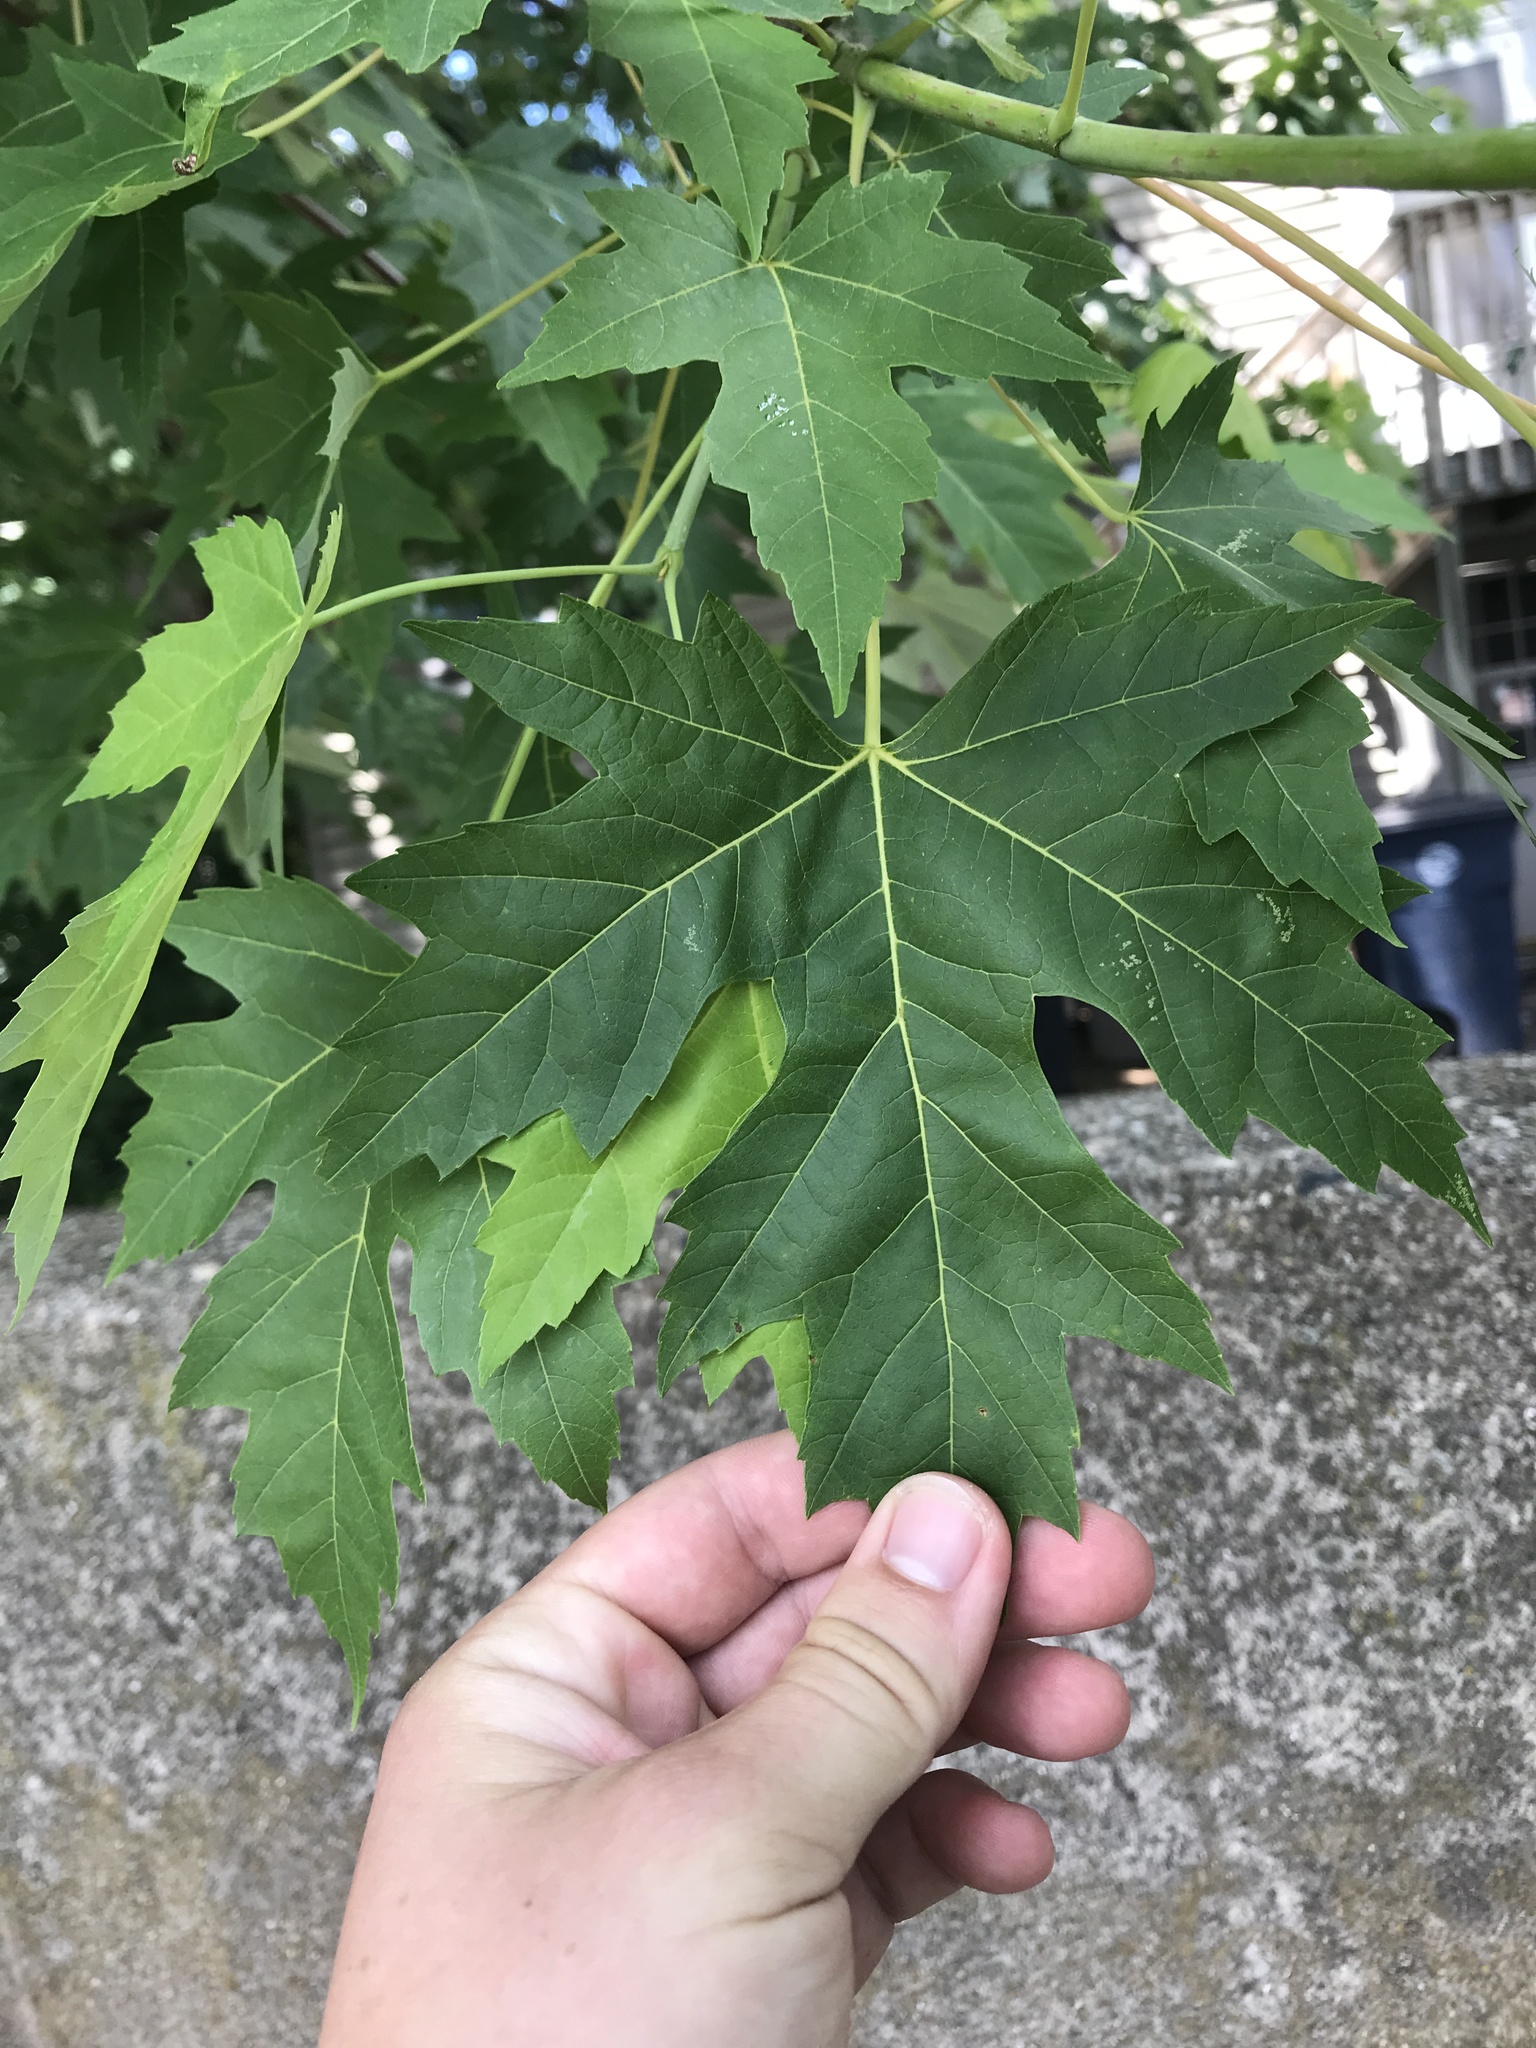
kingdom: Plantae
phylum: Tracheophyta
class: Magnoliopsida
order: Sapindales
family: Sapindaceae
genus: Acer
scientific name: Acer saccharinum
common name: Silver maple
